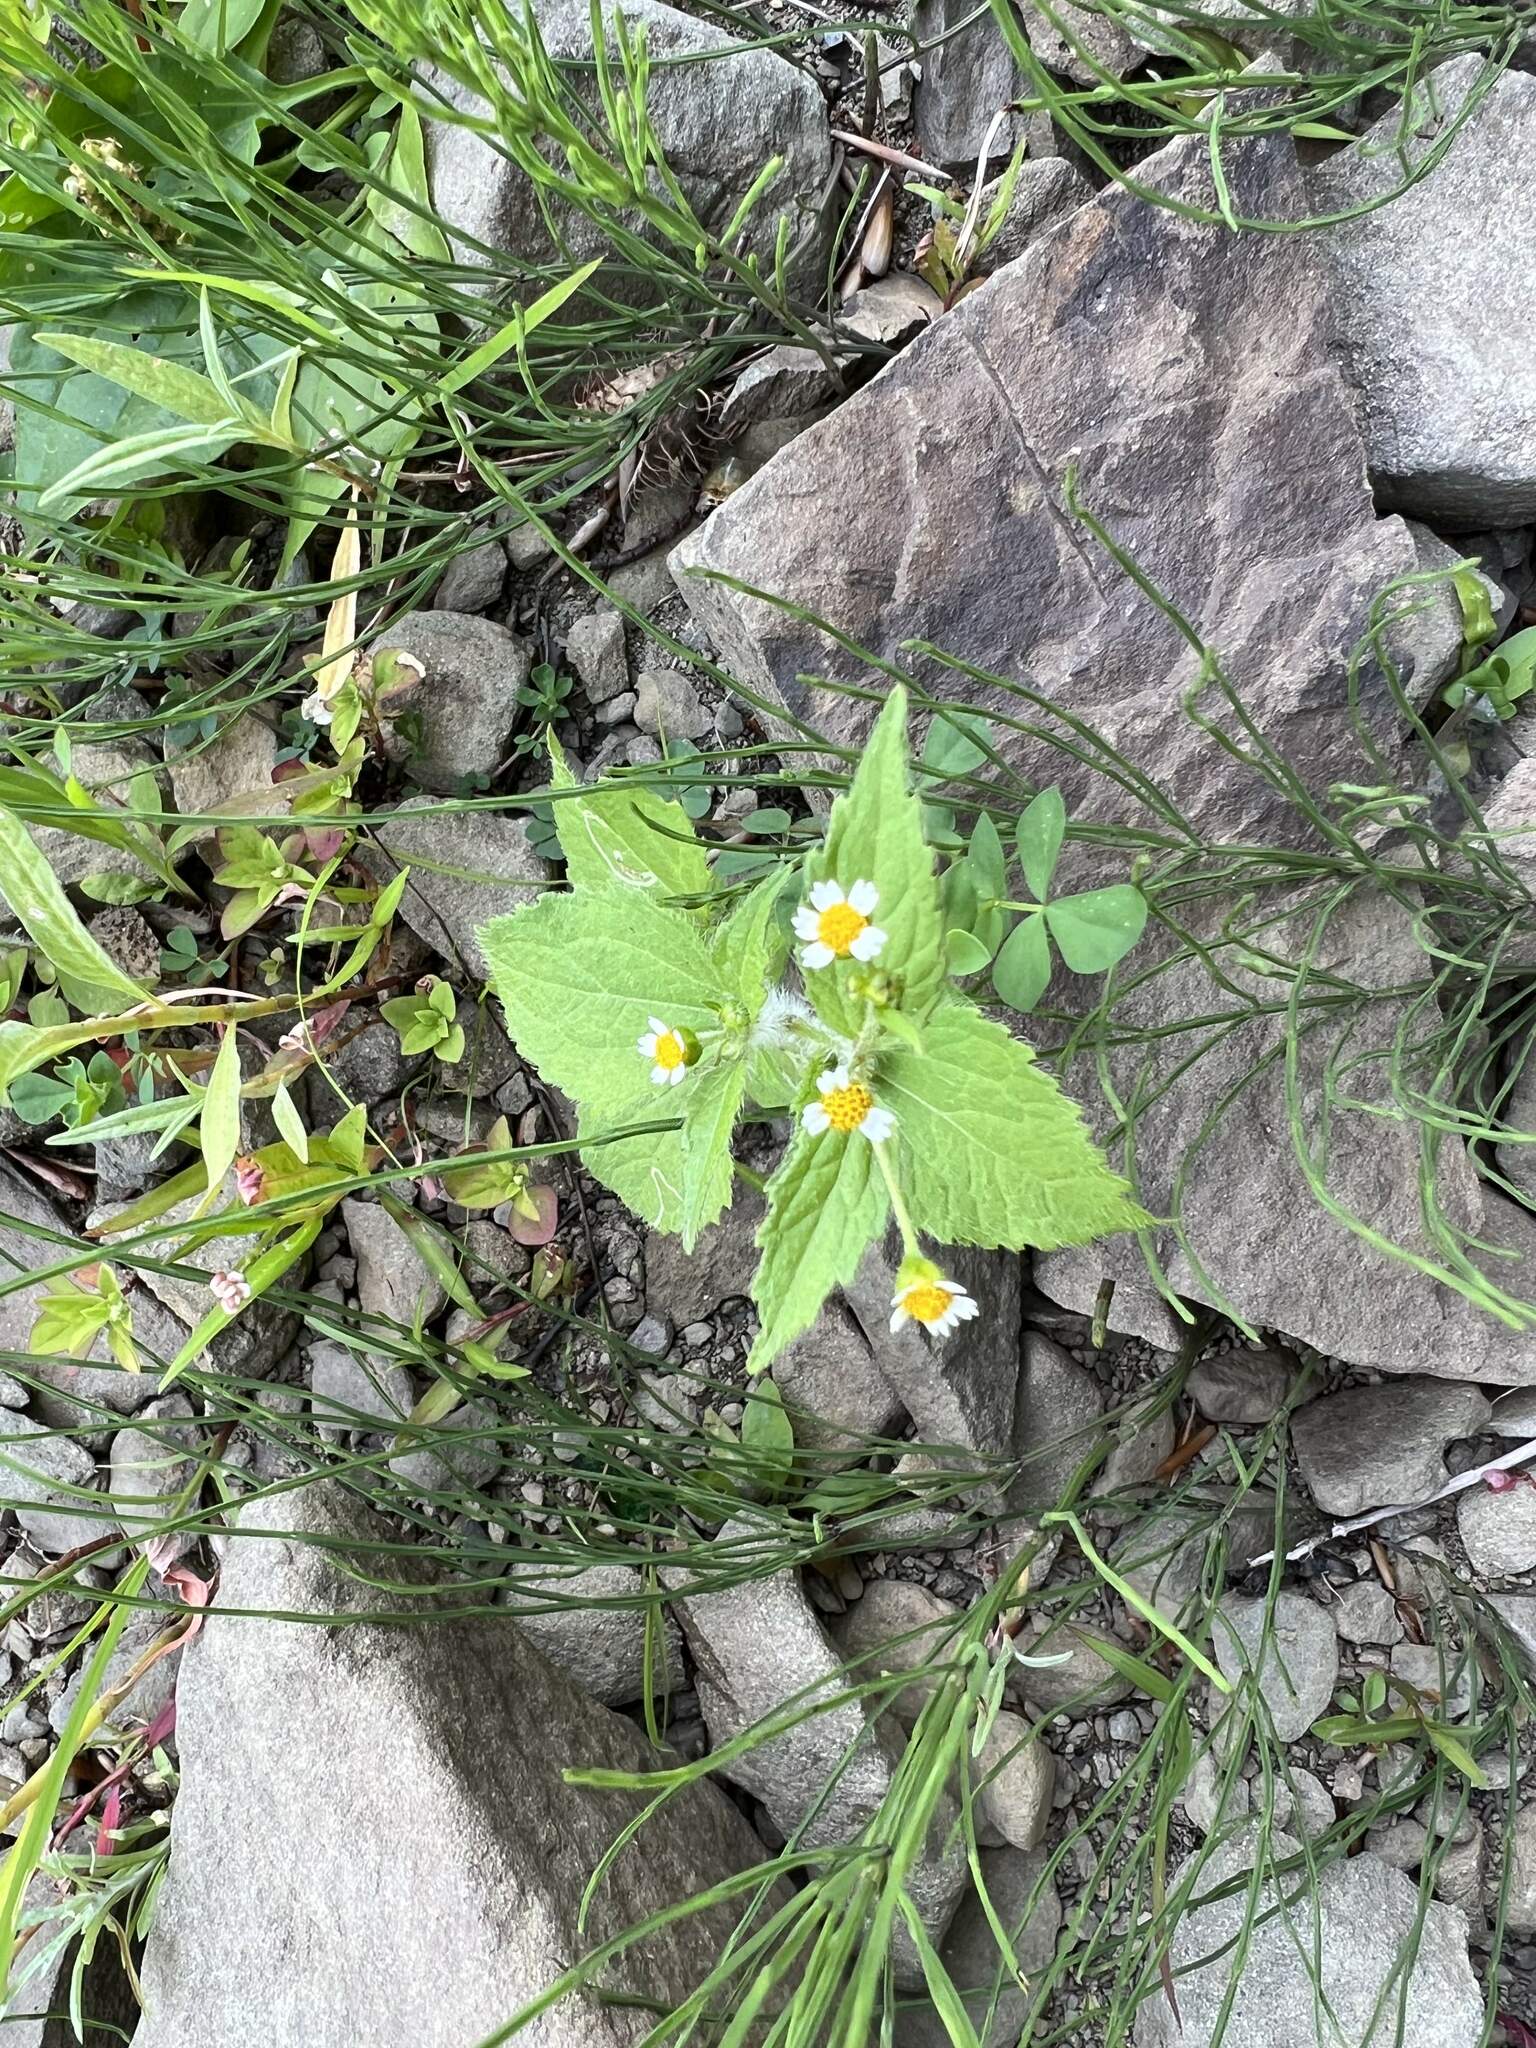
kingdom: Plantae
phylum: Tracheophyta
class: Magnoliopsida
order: Asterales
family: Asteraceae
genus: Galinsoga
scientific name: Galinsoga quadriradiata
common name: Shaggy soldier
